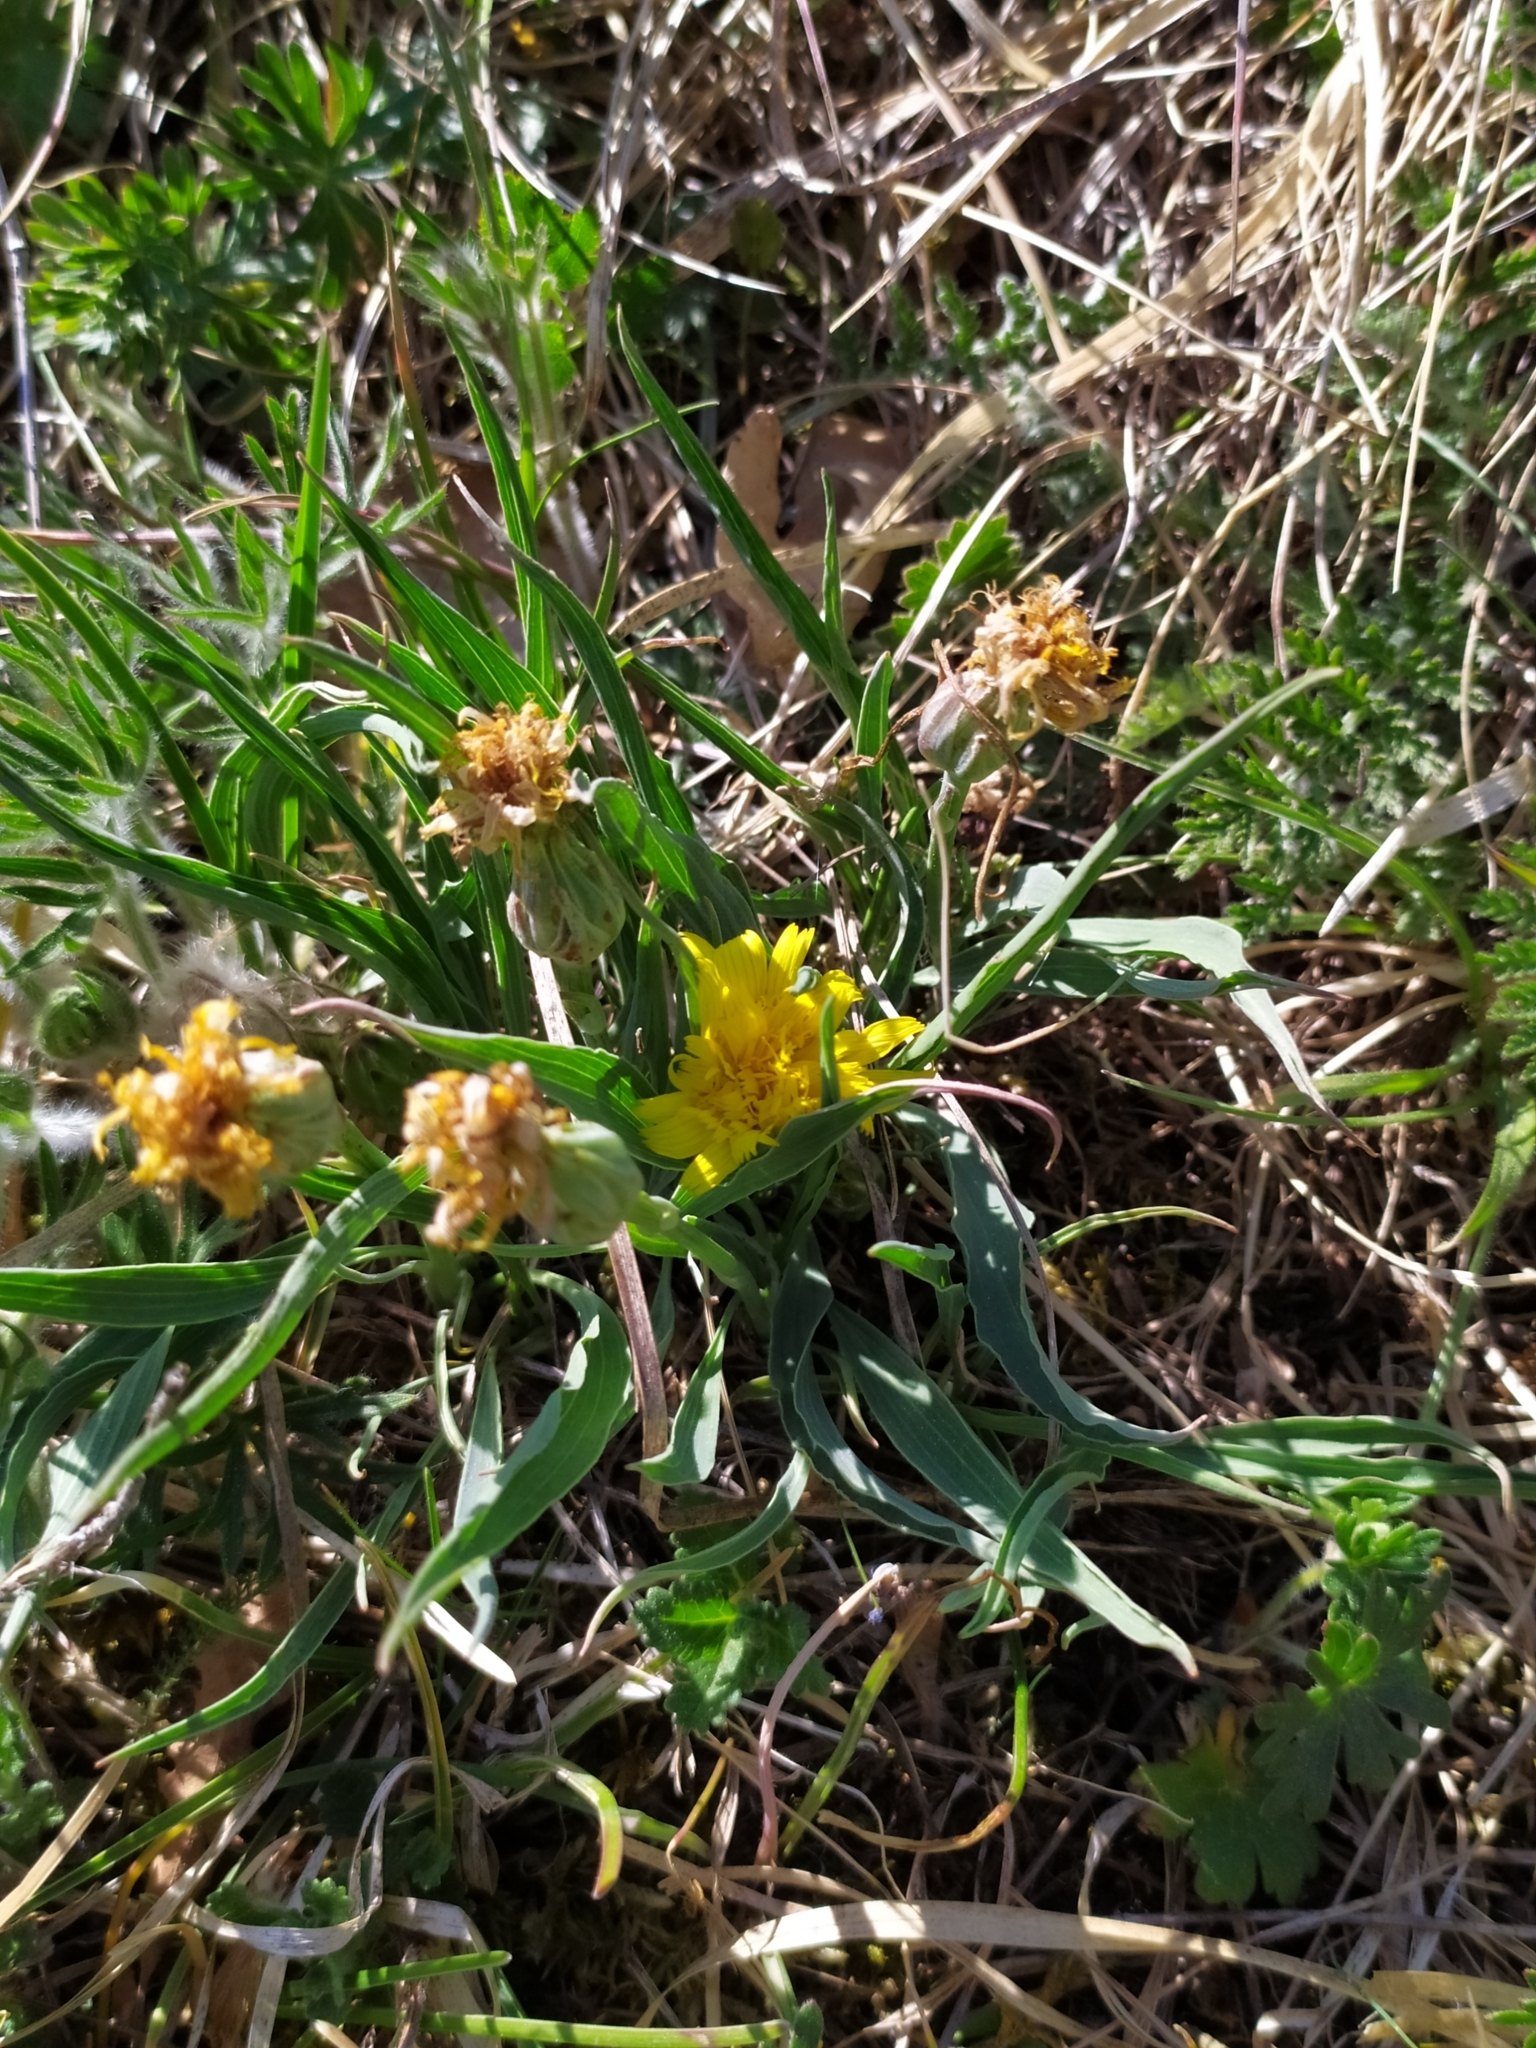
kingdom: Plantae
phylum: Tracheophyta
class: Magnoliopsida
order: Asterales
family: Asteraceae
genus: Takhtajaniantha
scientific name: Takhtajaniantha austriaca
